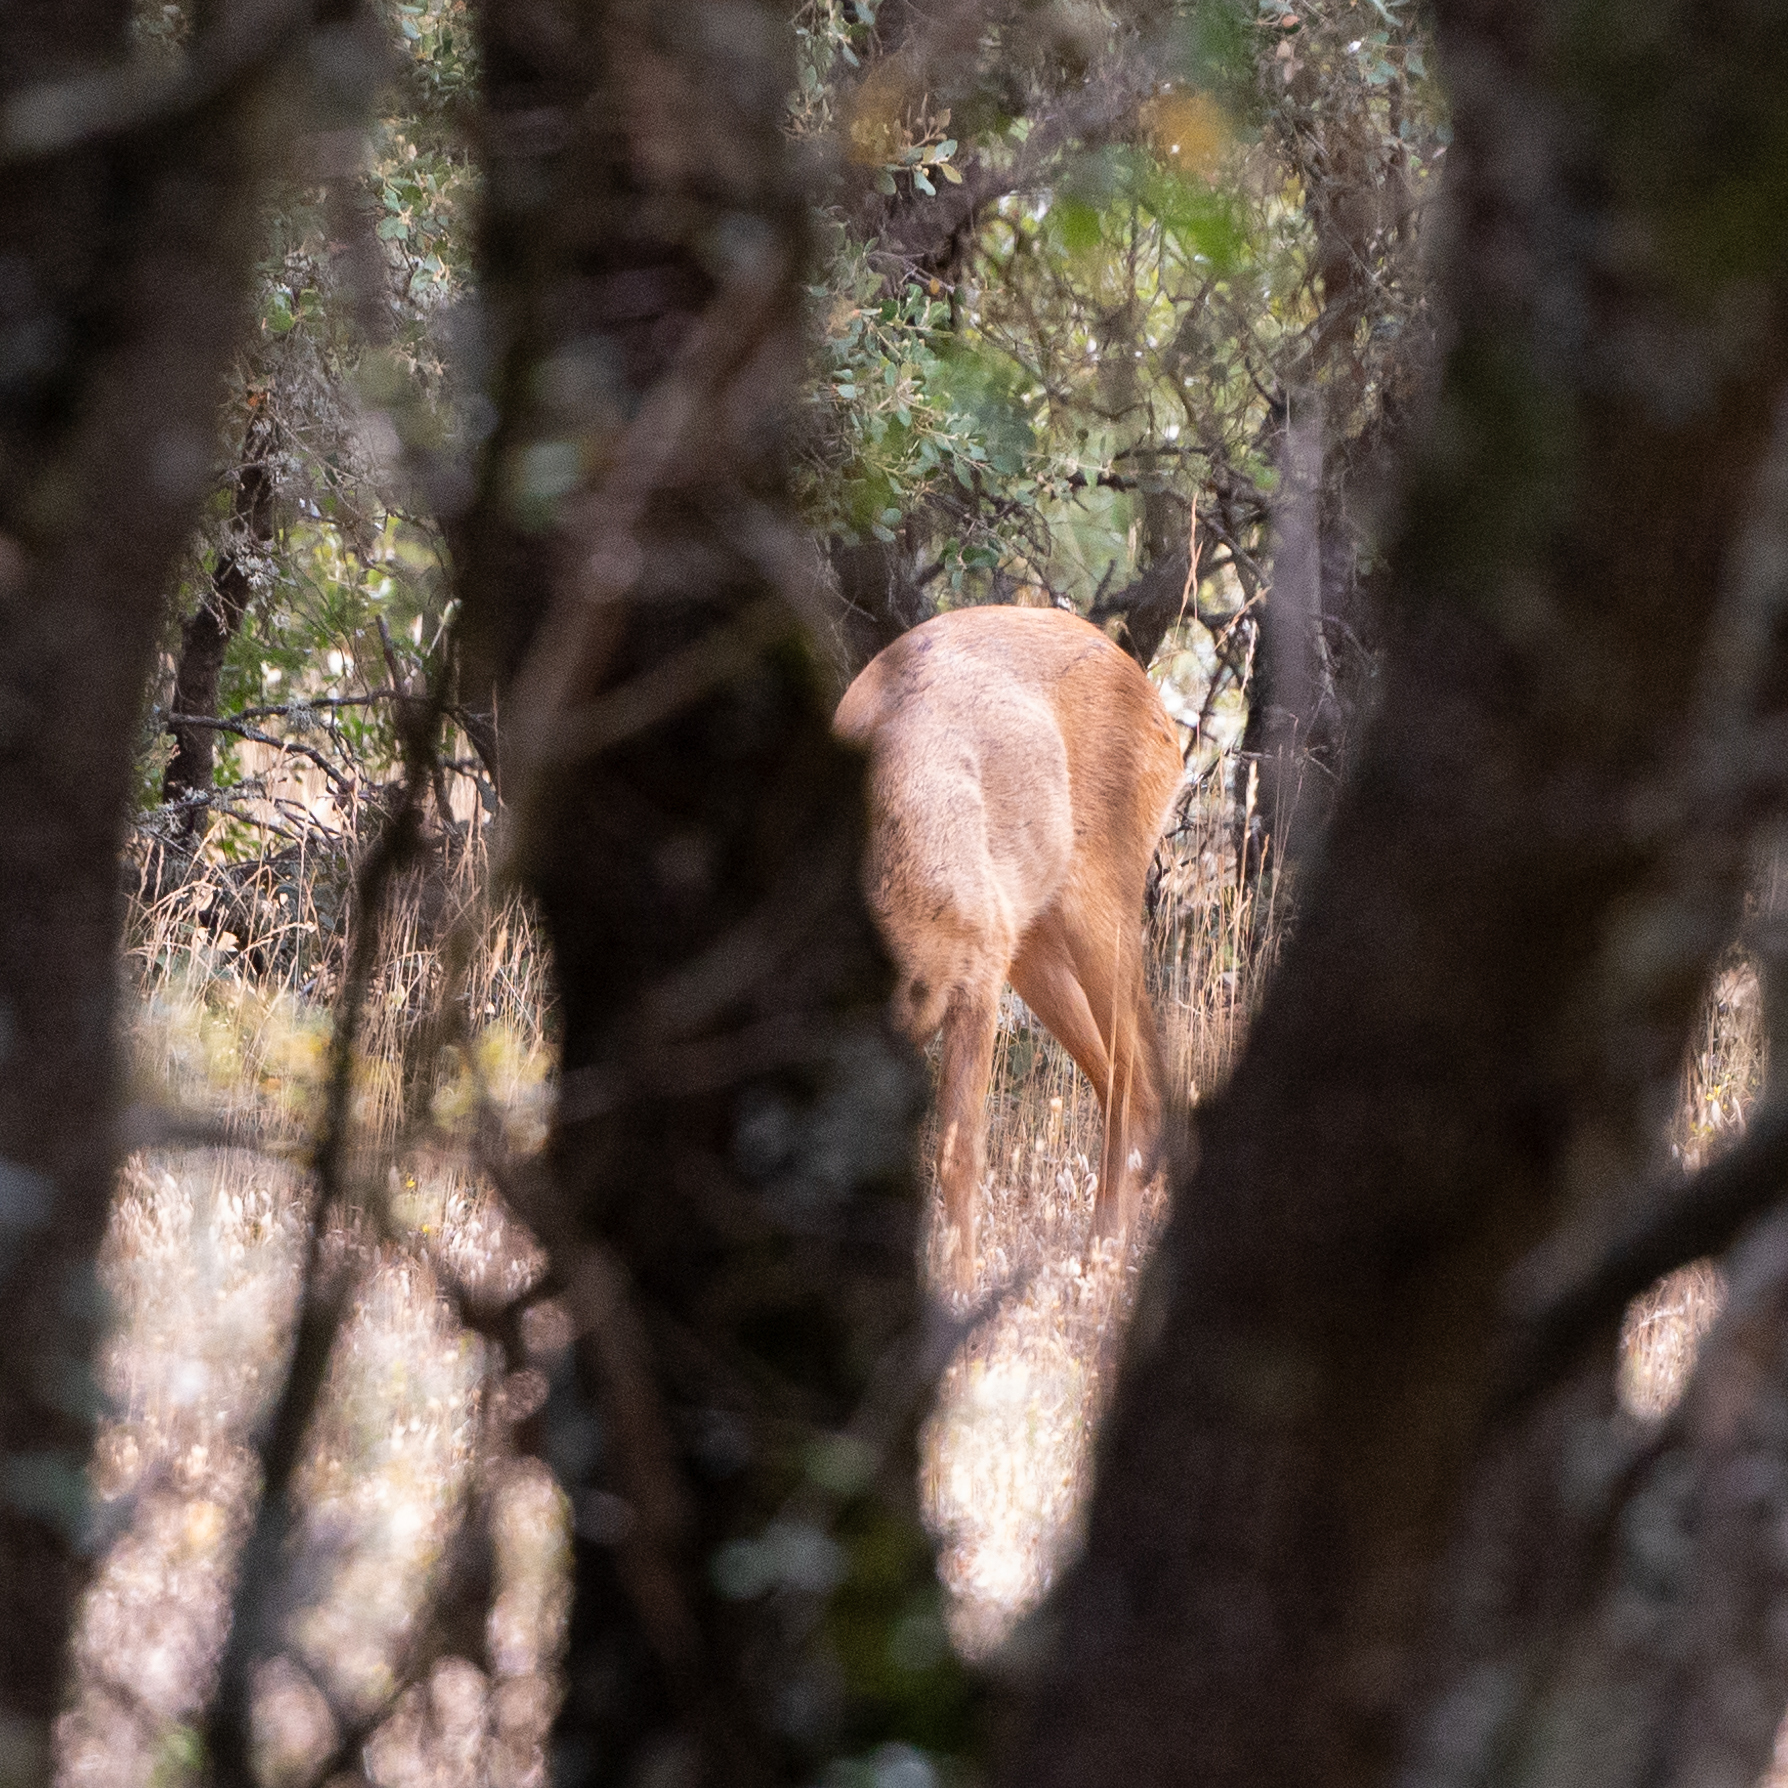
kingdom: Animalia
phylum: Chordata
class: Mammalia
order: Artiodactyla
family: Cervidae
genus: Capreolus
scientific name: Capreolus capreolus
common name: Western roe deer
